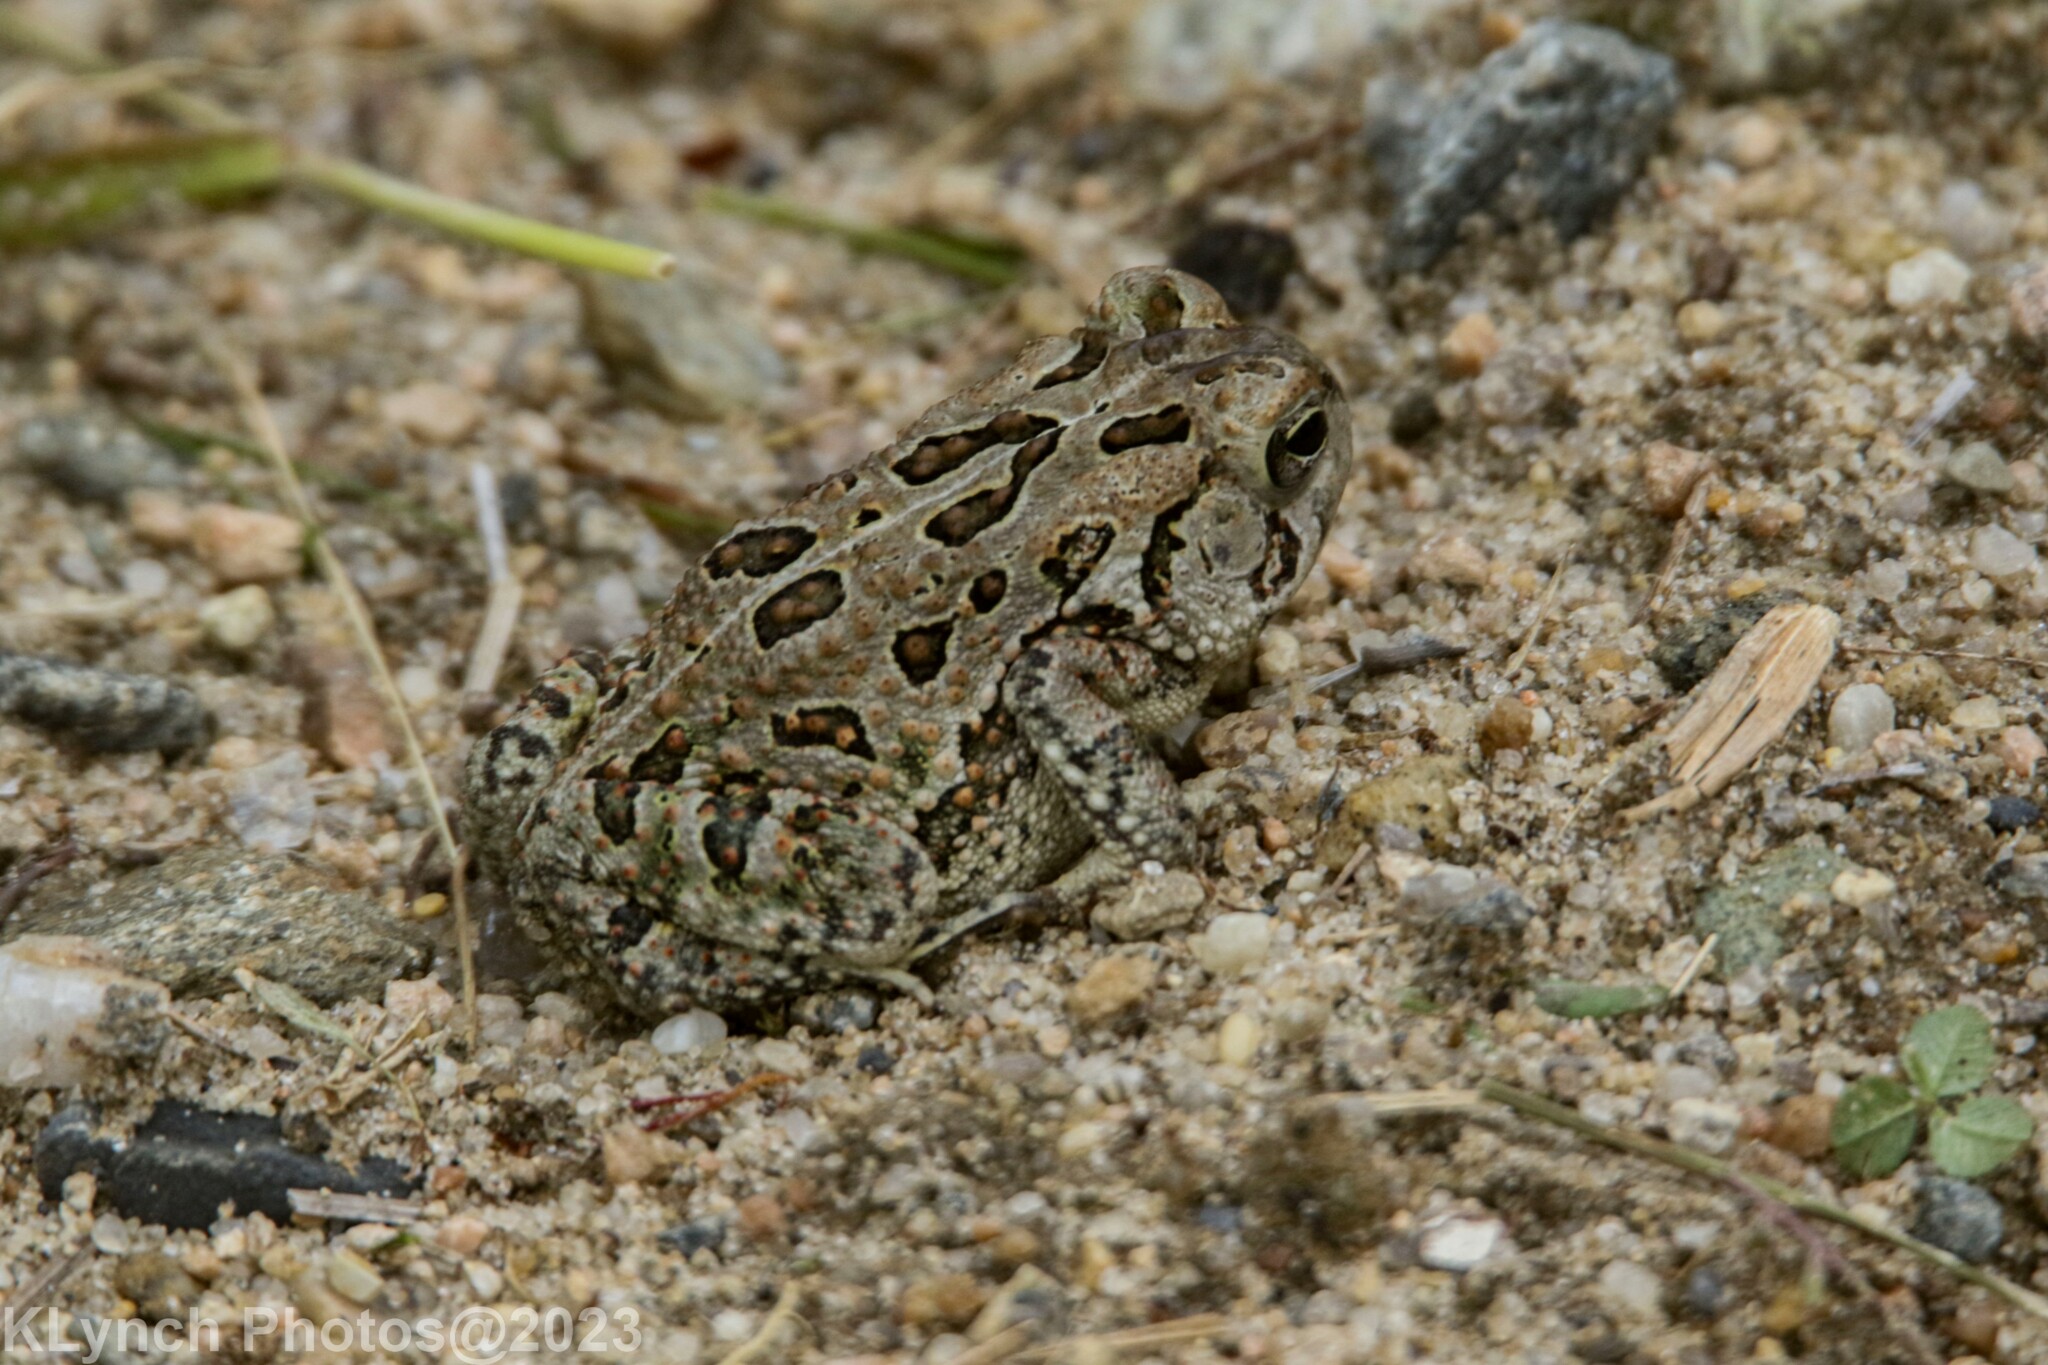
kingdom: Animalia
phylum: Chordata
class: Amphibia
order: Anura
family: Bufonidae
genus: Anaxyrus
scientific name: Anaxyrus fowleri
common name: Fowler's toad
